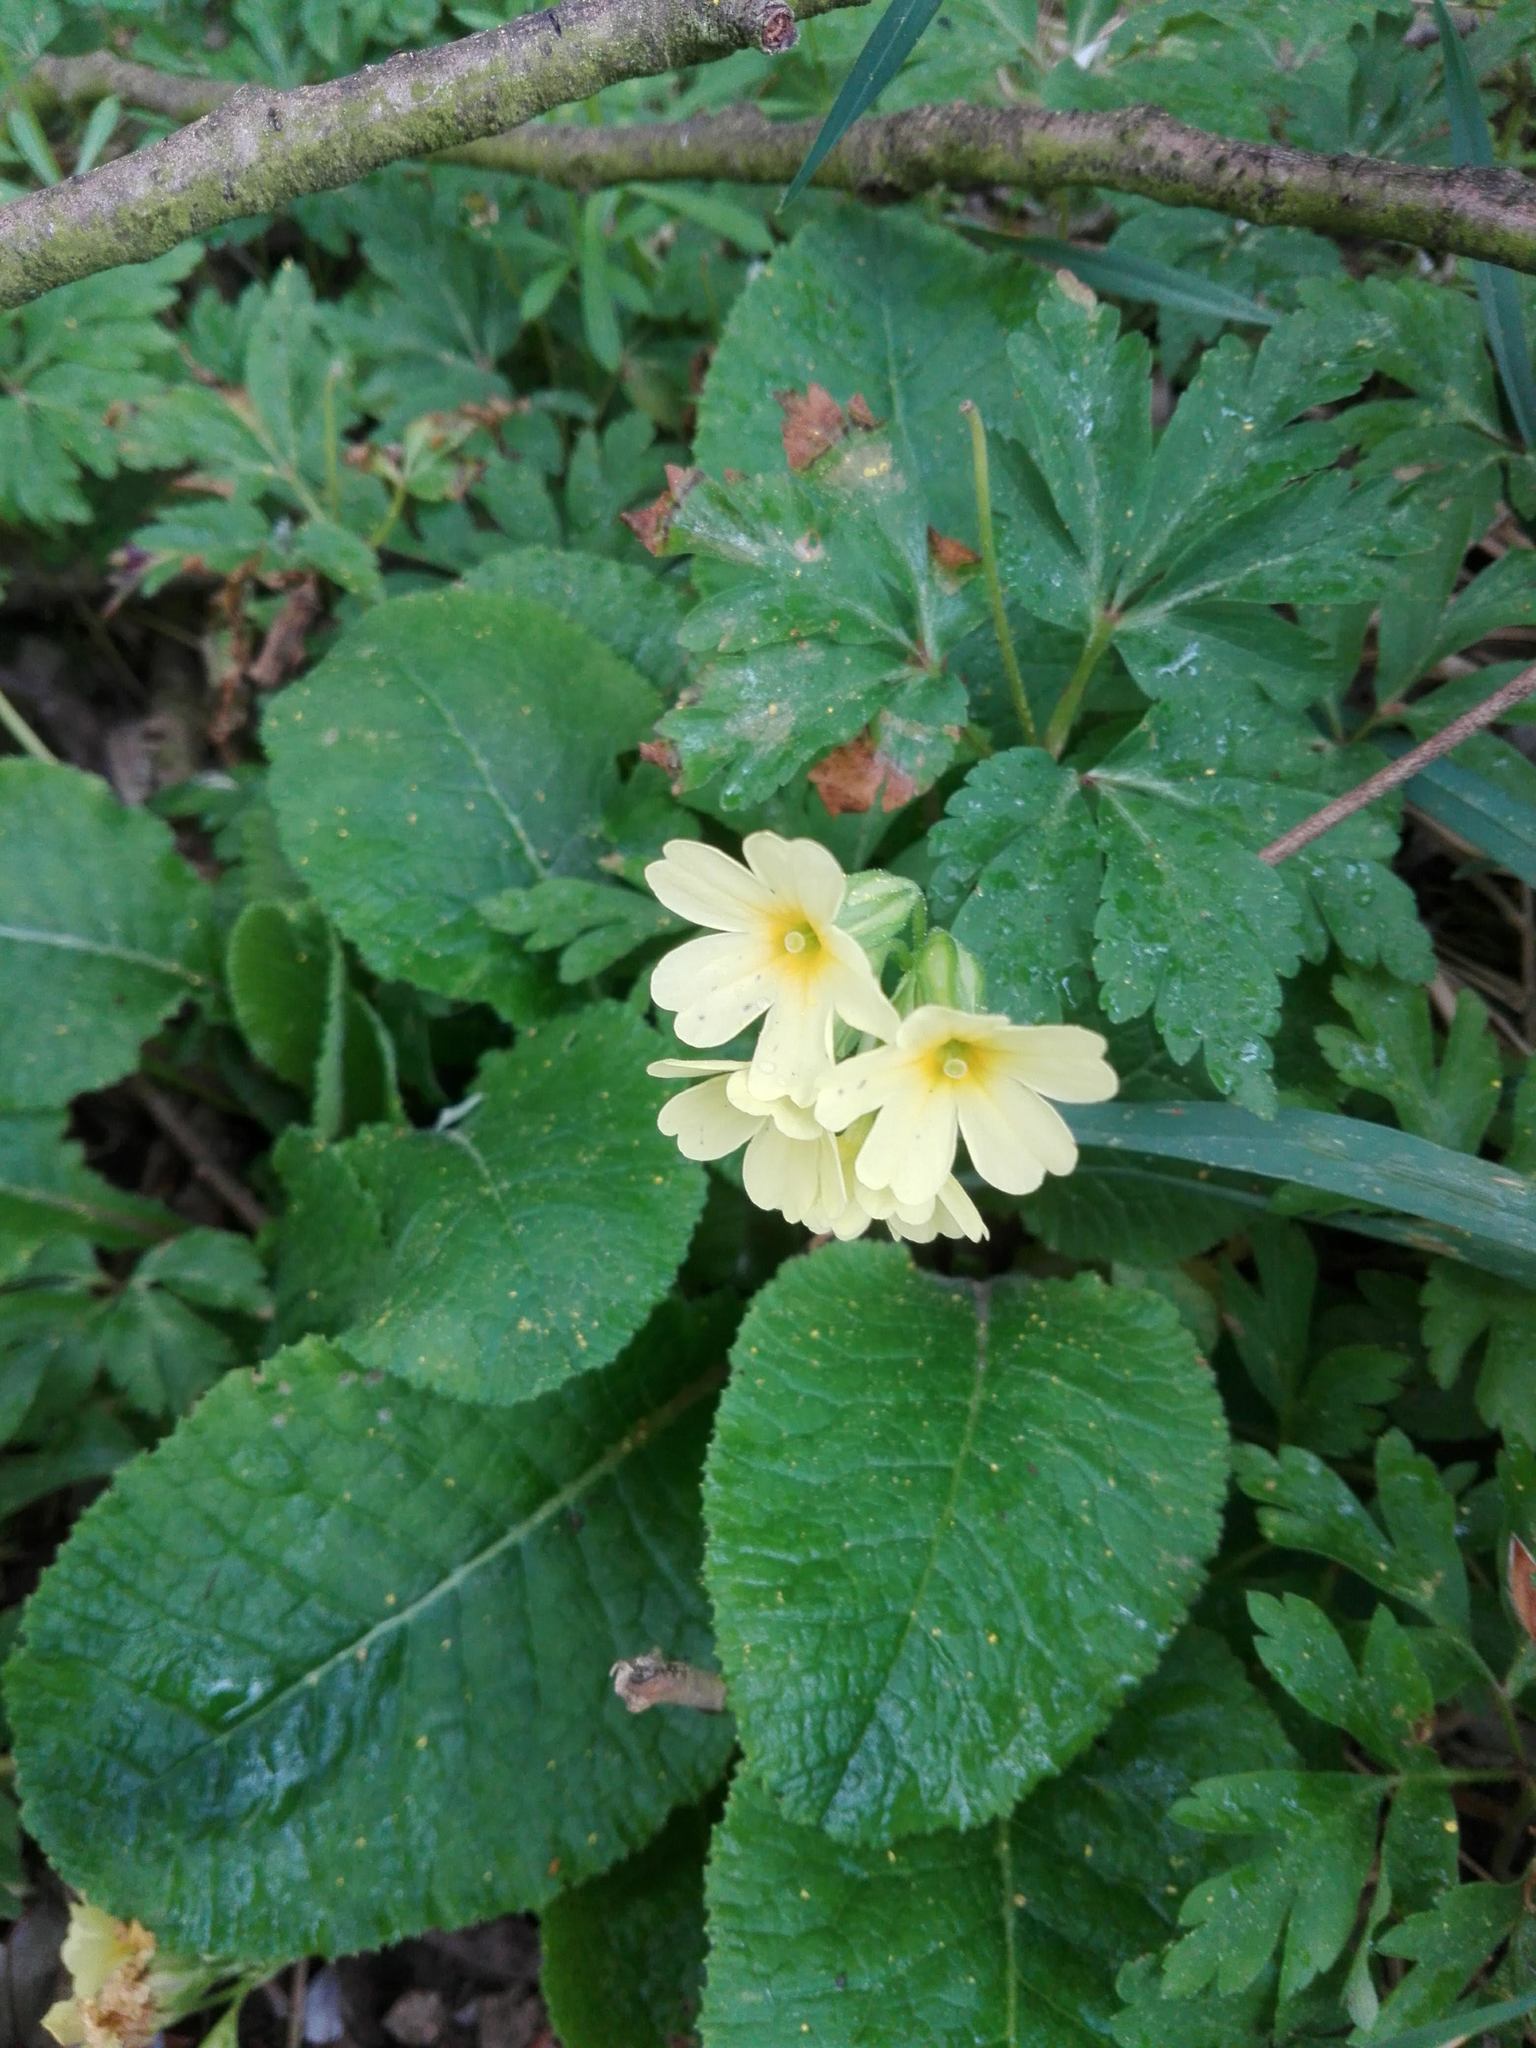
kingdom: Plantae
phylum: Tracheophyta
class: Magnoliopsida
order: Ericales
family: Primulaceae
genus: Primula
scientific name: Primula elatior
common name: Oxlip
